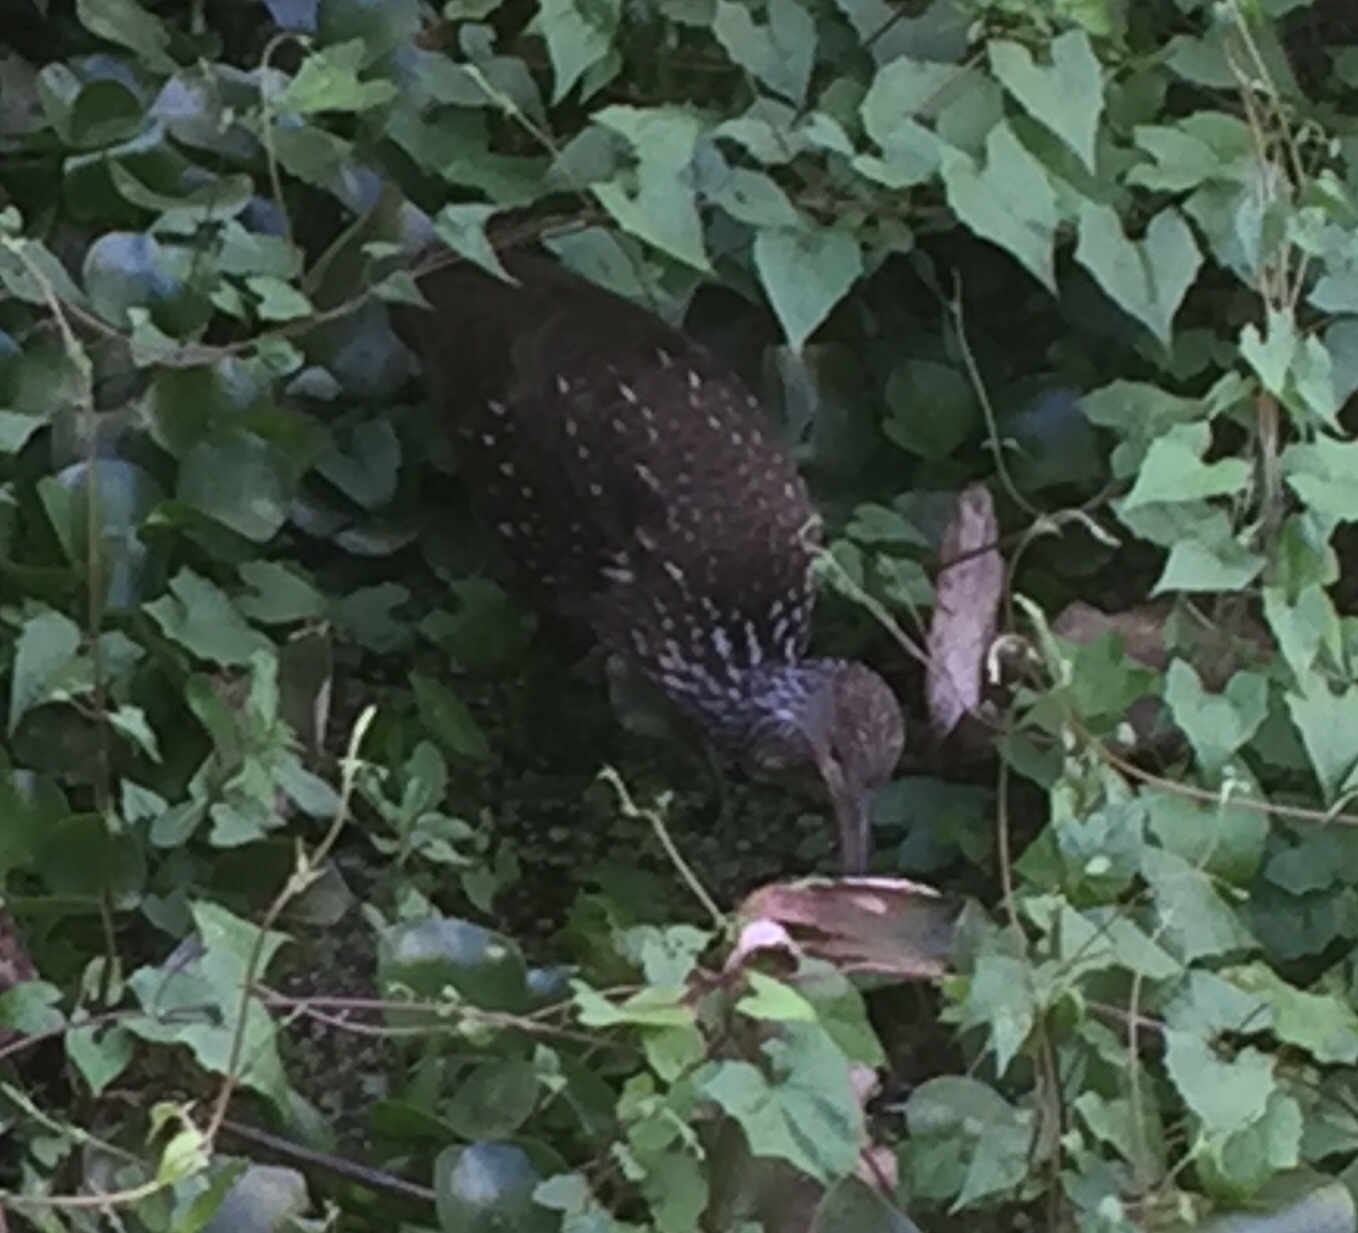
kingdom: Animalia
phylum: Chordata
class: Aves
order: Gruiformes
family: Aramidae
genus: Aramus
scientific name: Aramus guarauna
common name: Limpkin
